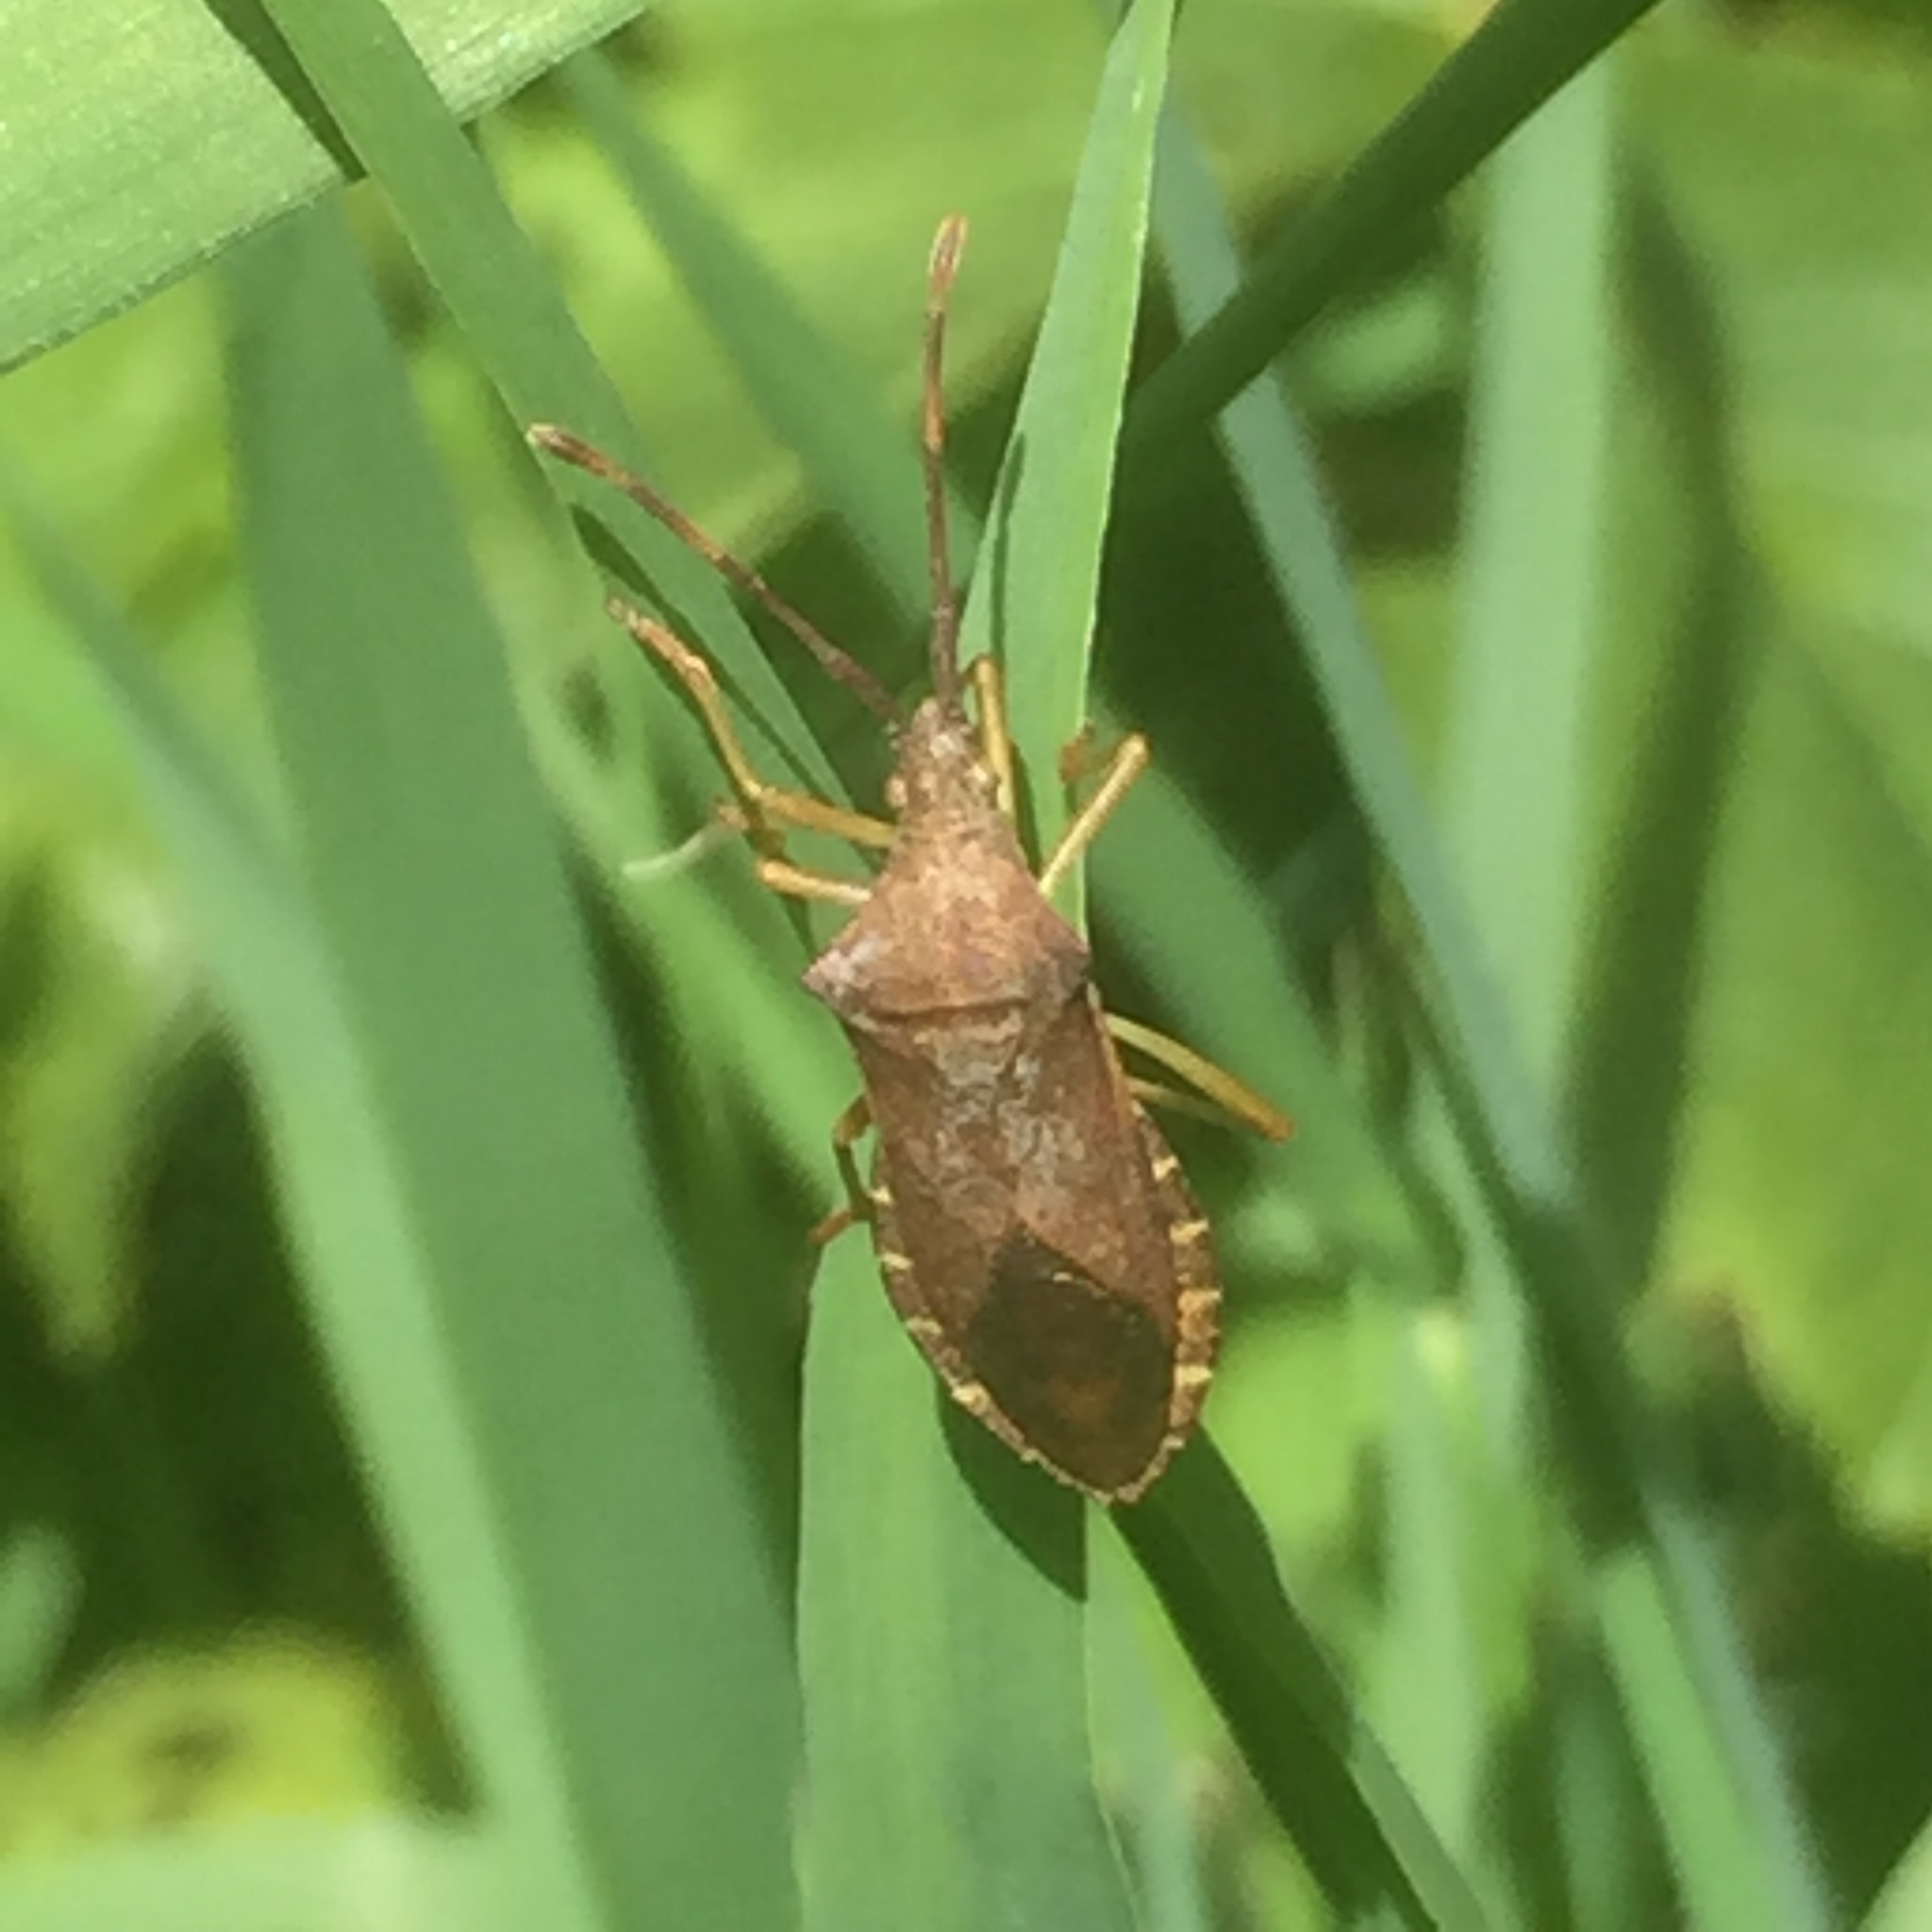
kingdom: Animalia
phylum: Arthropoda
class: Insecta
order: Hemiptera
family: Coreidae
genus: Gonocerus
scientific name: Gonocerus acuteangulatus
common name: Box bug
